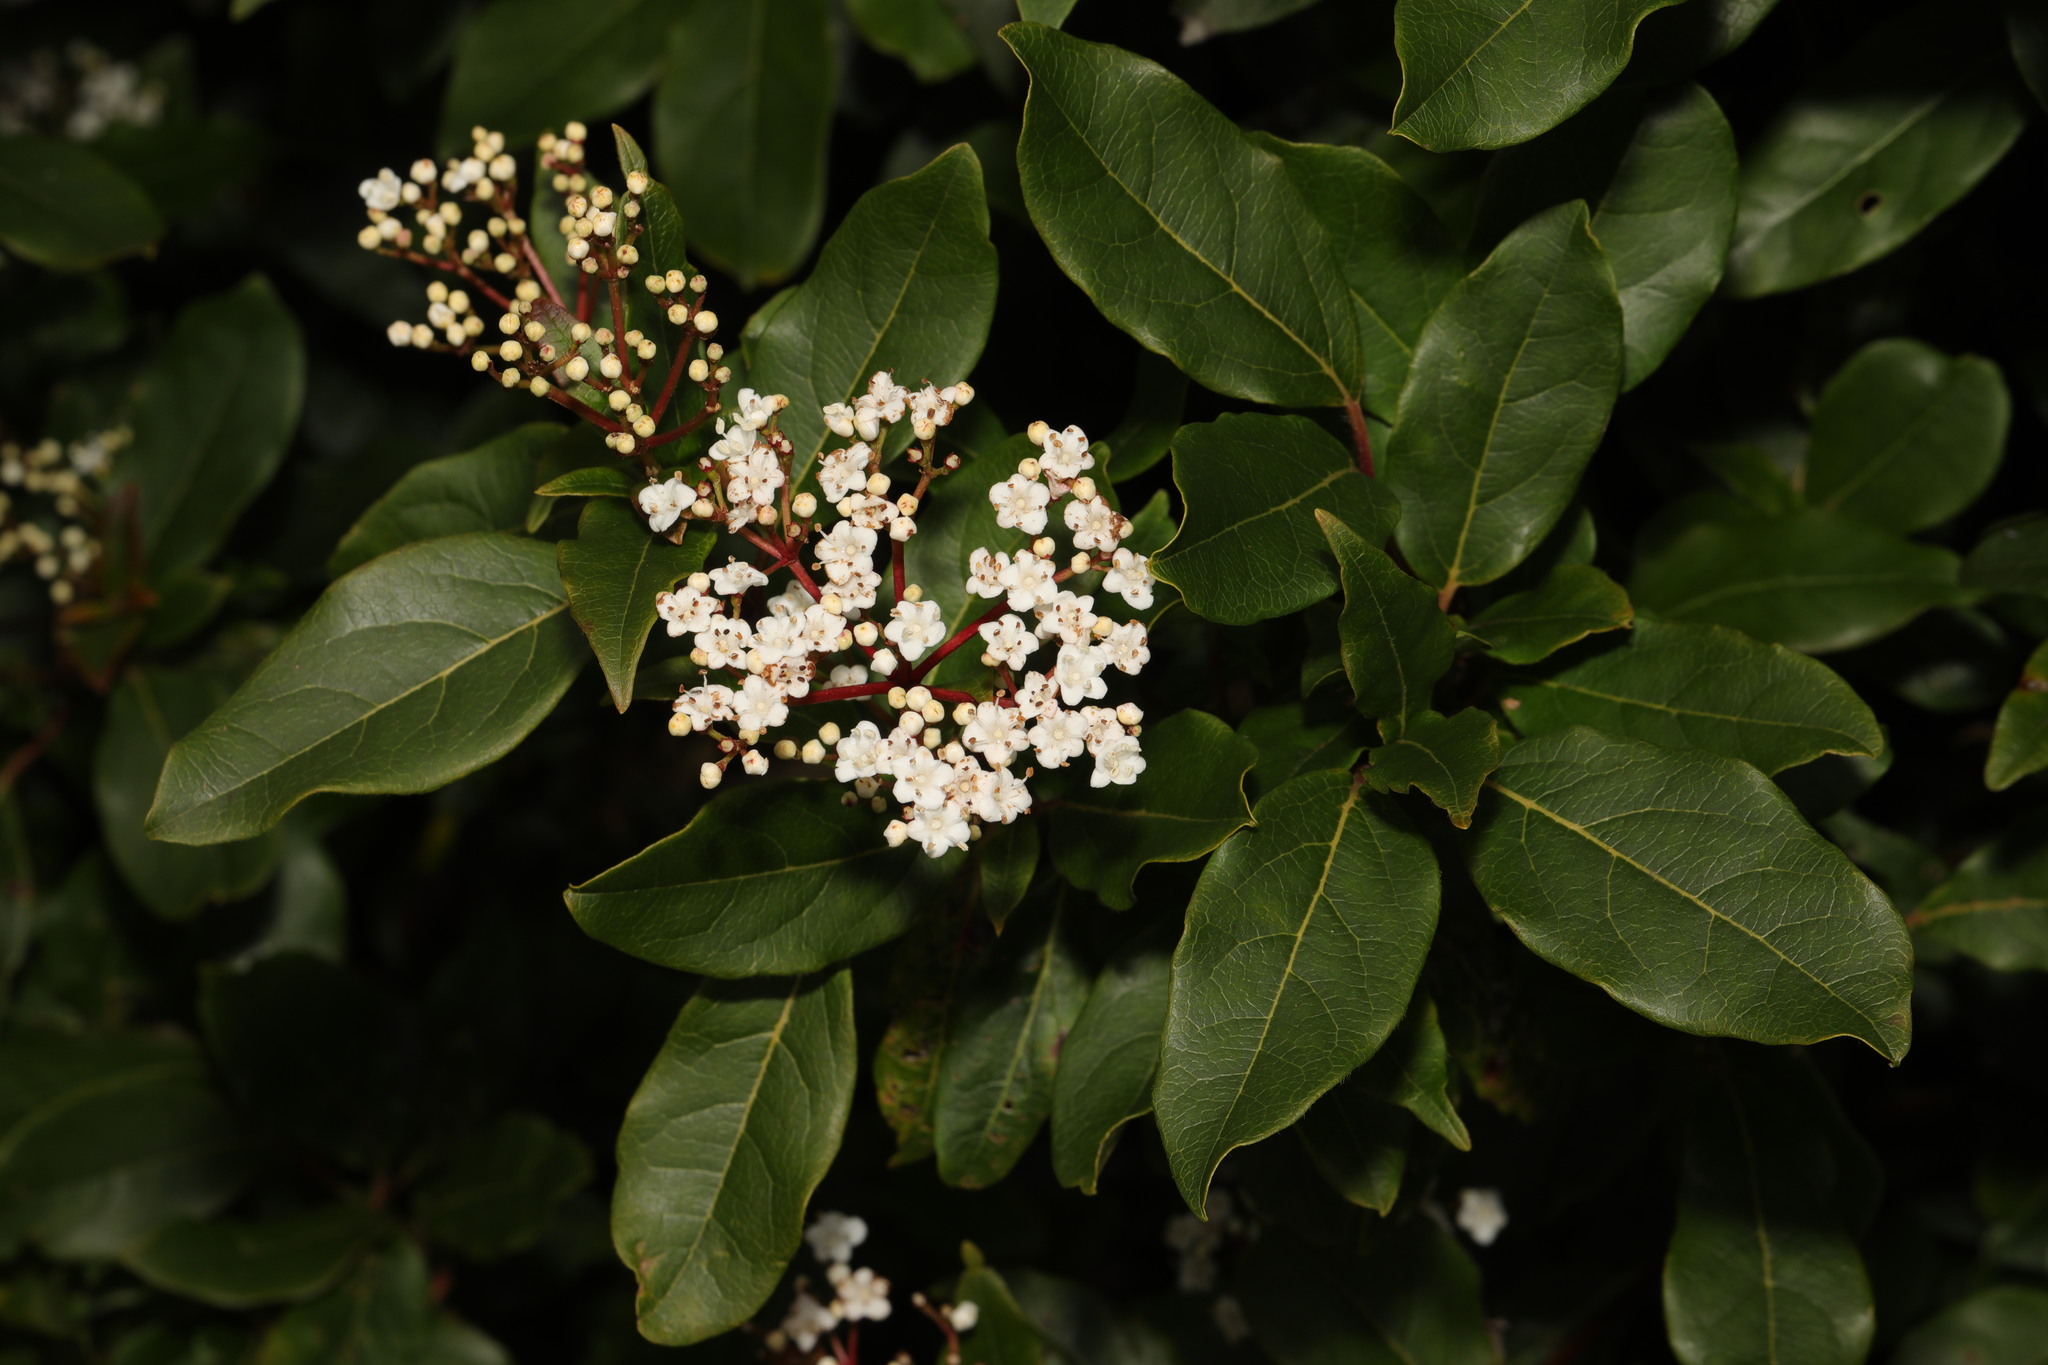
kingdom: Plantae
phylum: Tracheophyta
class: Magnoliopsida
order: Dipsacales
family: Viburnaceae
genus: Viburnum
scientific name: Viburnum tinus
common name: Laurustinus
